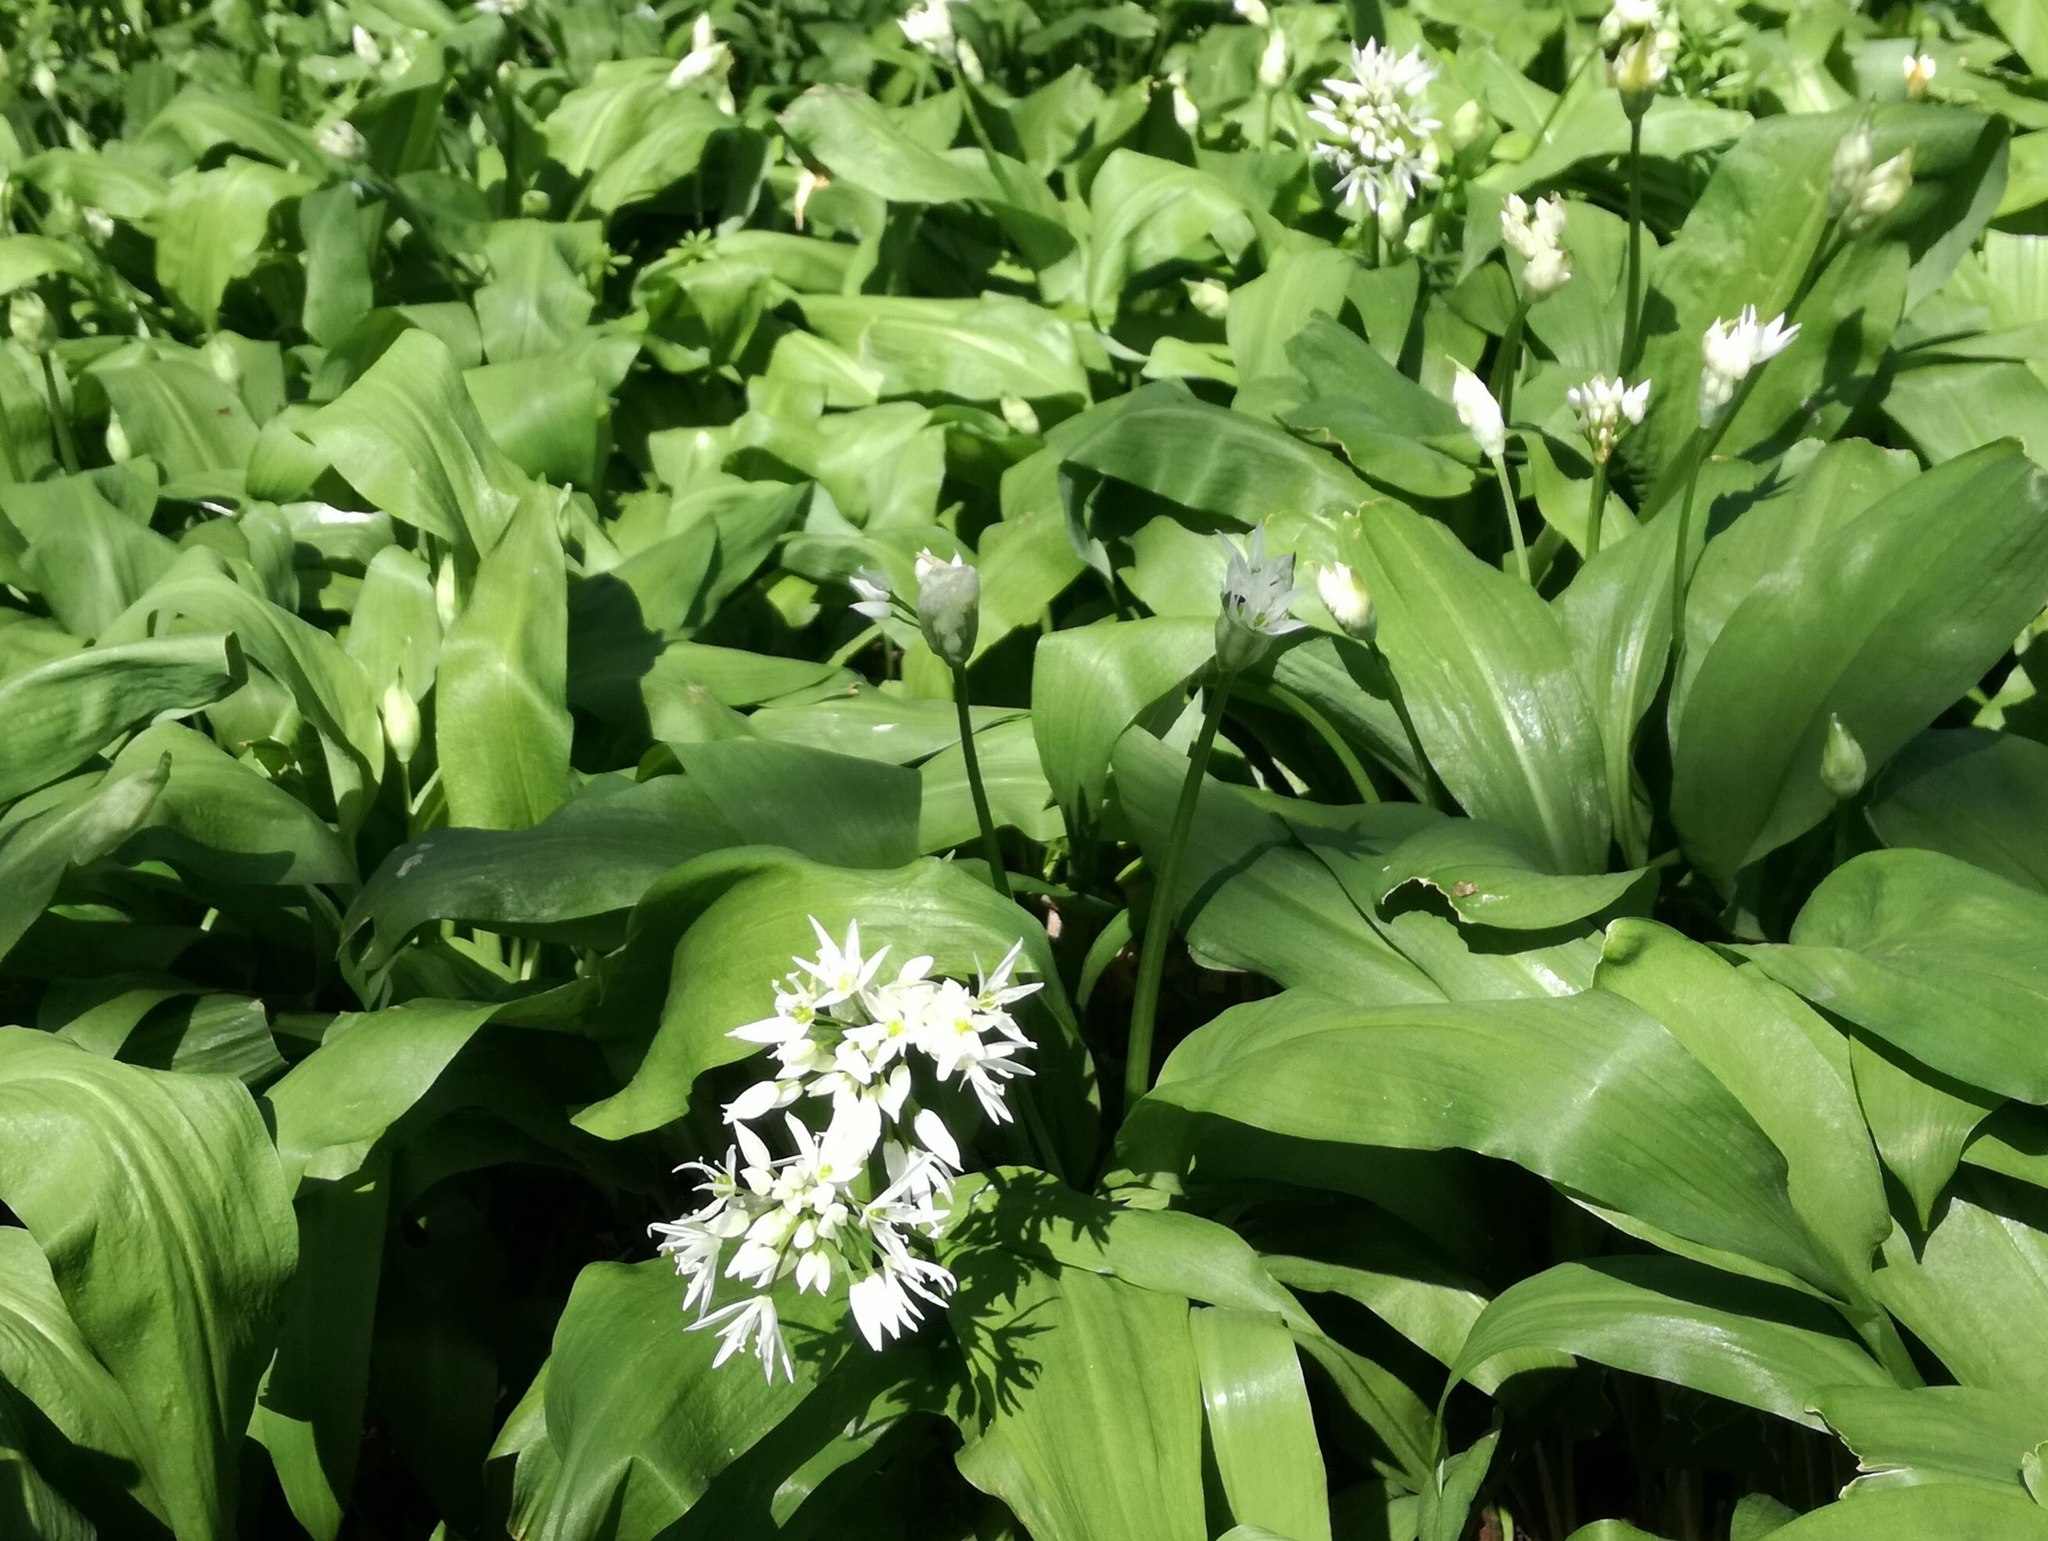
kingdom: Plantae
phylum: Tracheophyta
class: Liliopsida
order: Asparagales
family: Amaryllidaceae
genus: Allium
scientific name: Allium ursinum
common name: Ramsons
